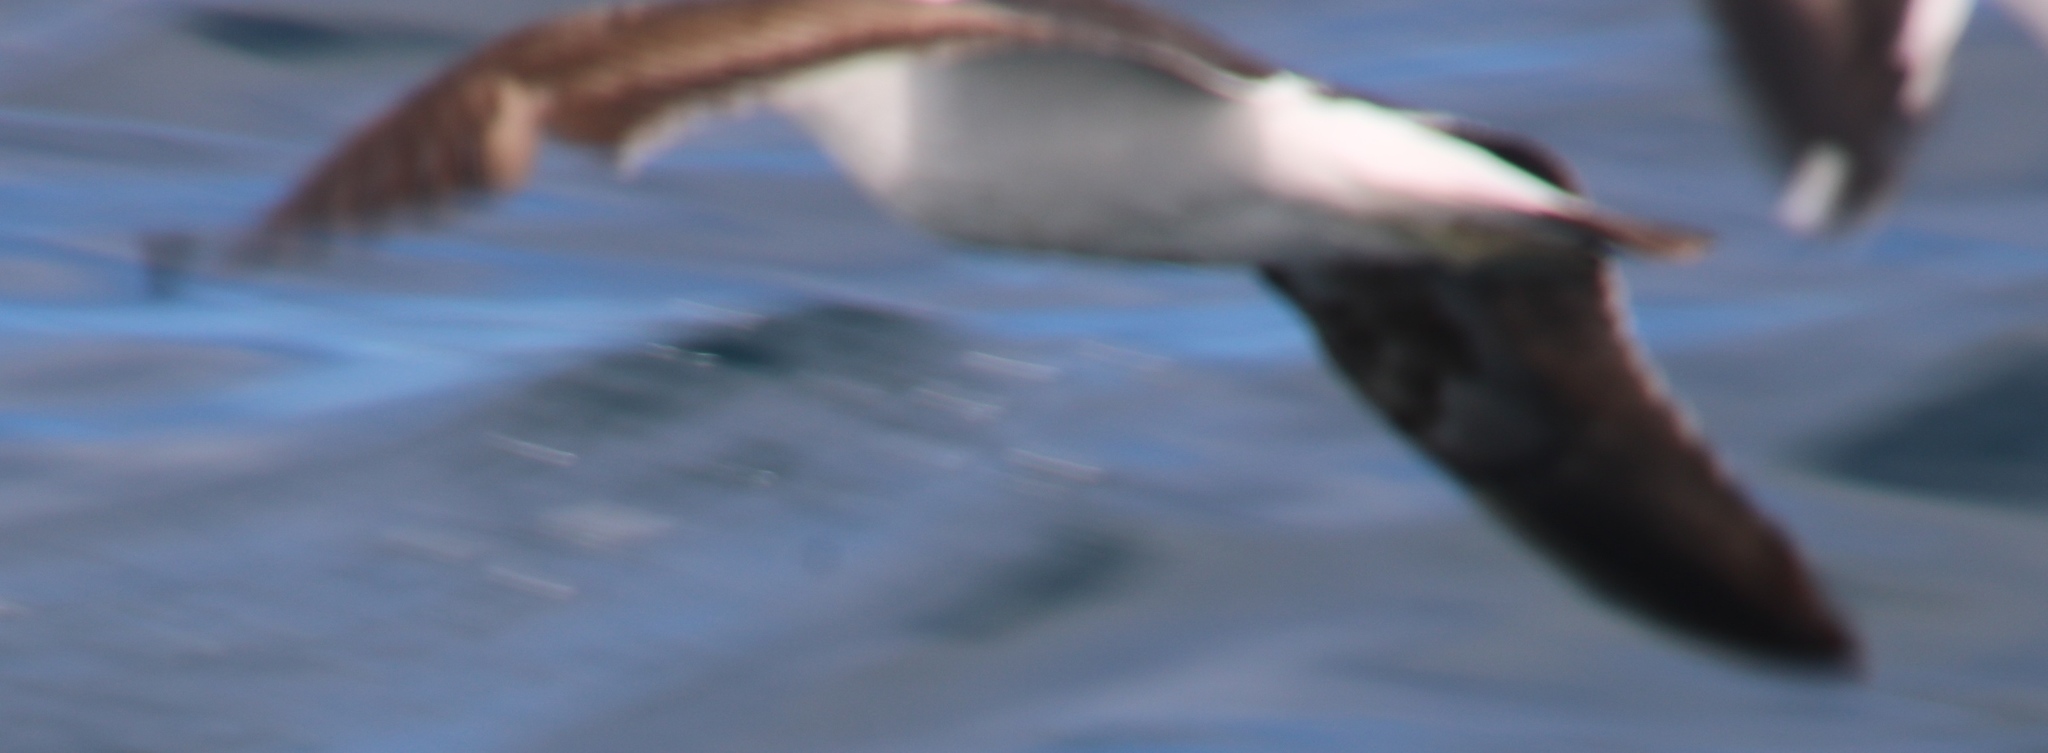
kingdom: Animalia
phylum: Chordata
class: Aves
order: Procellariiformes
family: Procellariidae
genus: Puffinus
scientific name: Puffinus gravis
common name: Great shearwater
